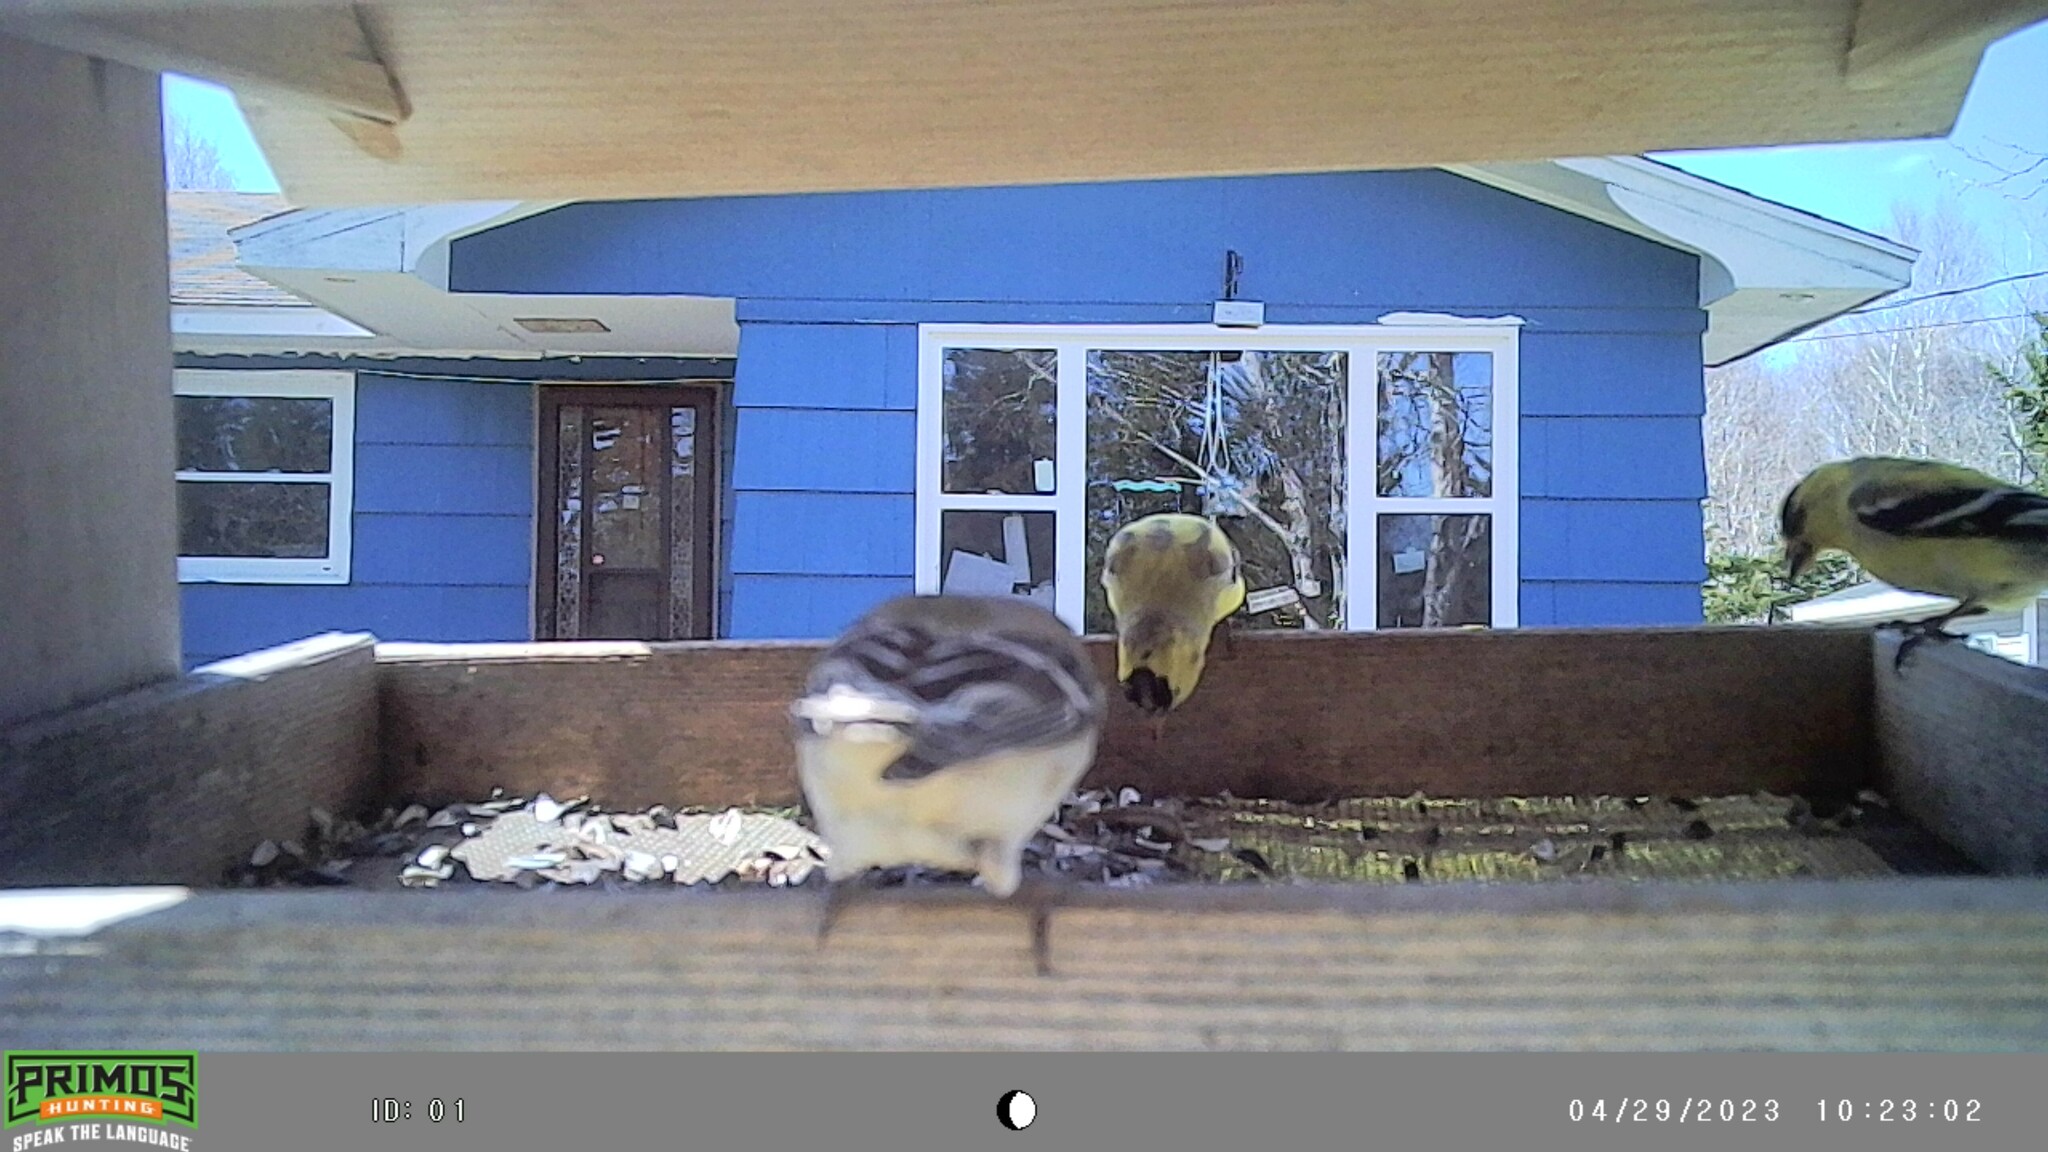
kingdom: Animalia
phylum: Chordata
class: Aves
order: Passeriformes
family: Fringillidae
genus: Spinus
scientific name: Spinus tristis
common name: American goldfinch
